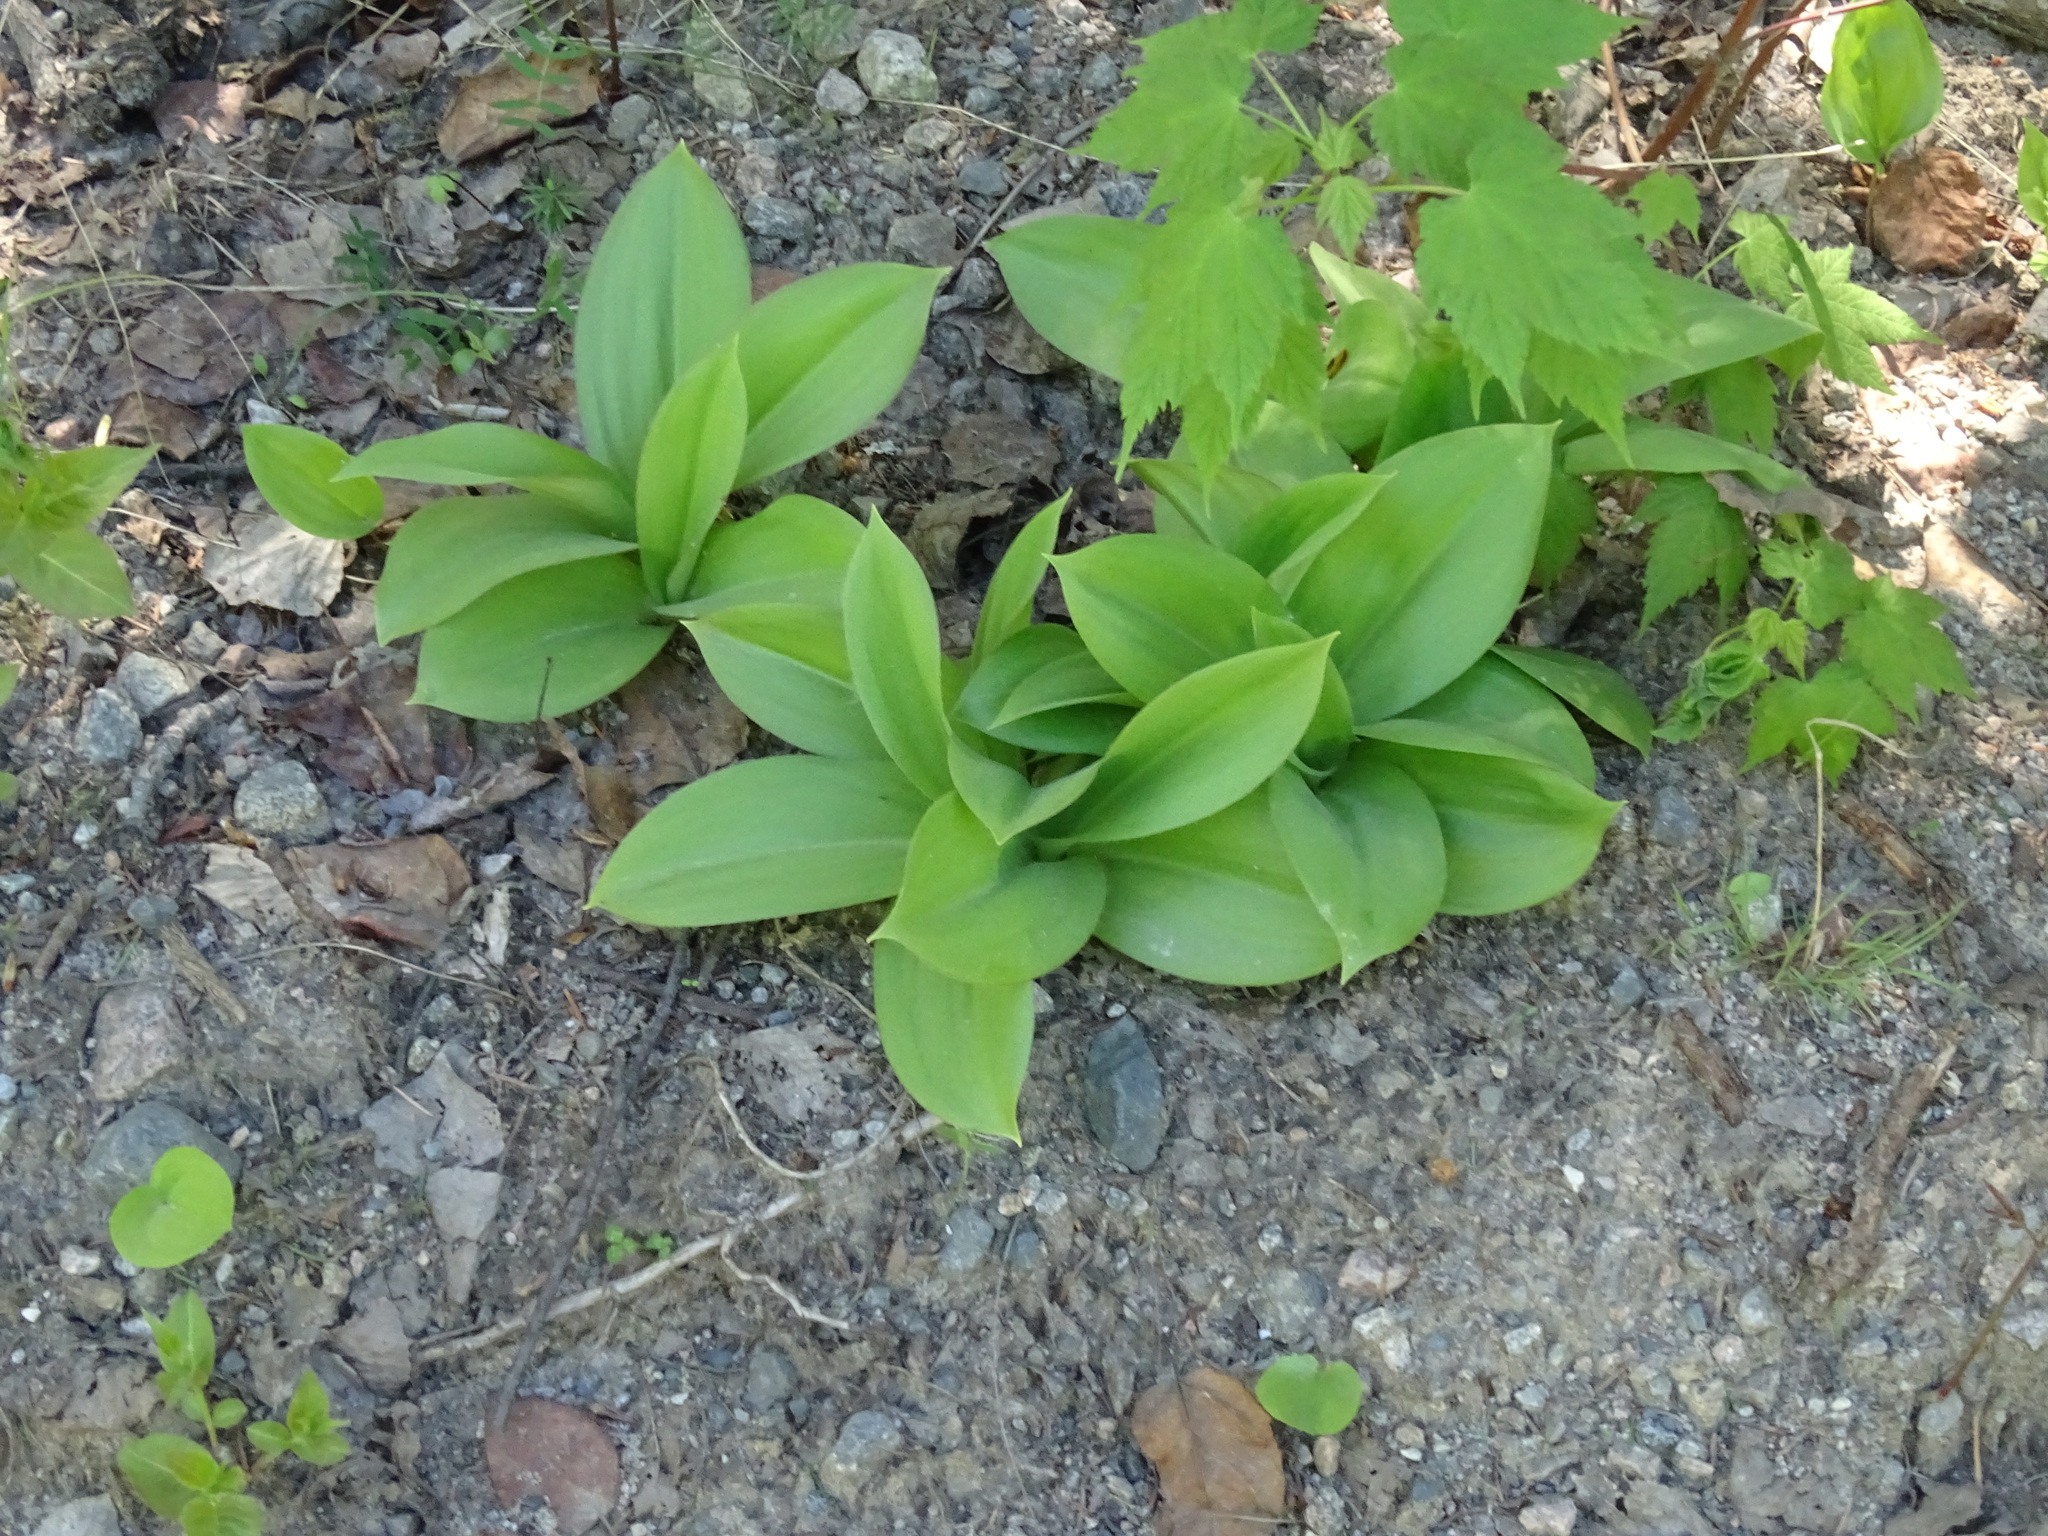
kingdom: Plantae
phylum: Tracheophyta
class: Liliopsida
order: Liliales
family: Liliaceae
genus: Clintonia
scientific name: Clintonia borealis
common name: Yellow clintonia
